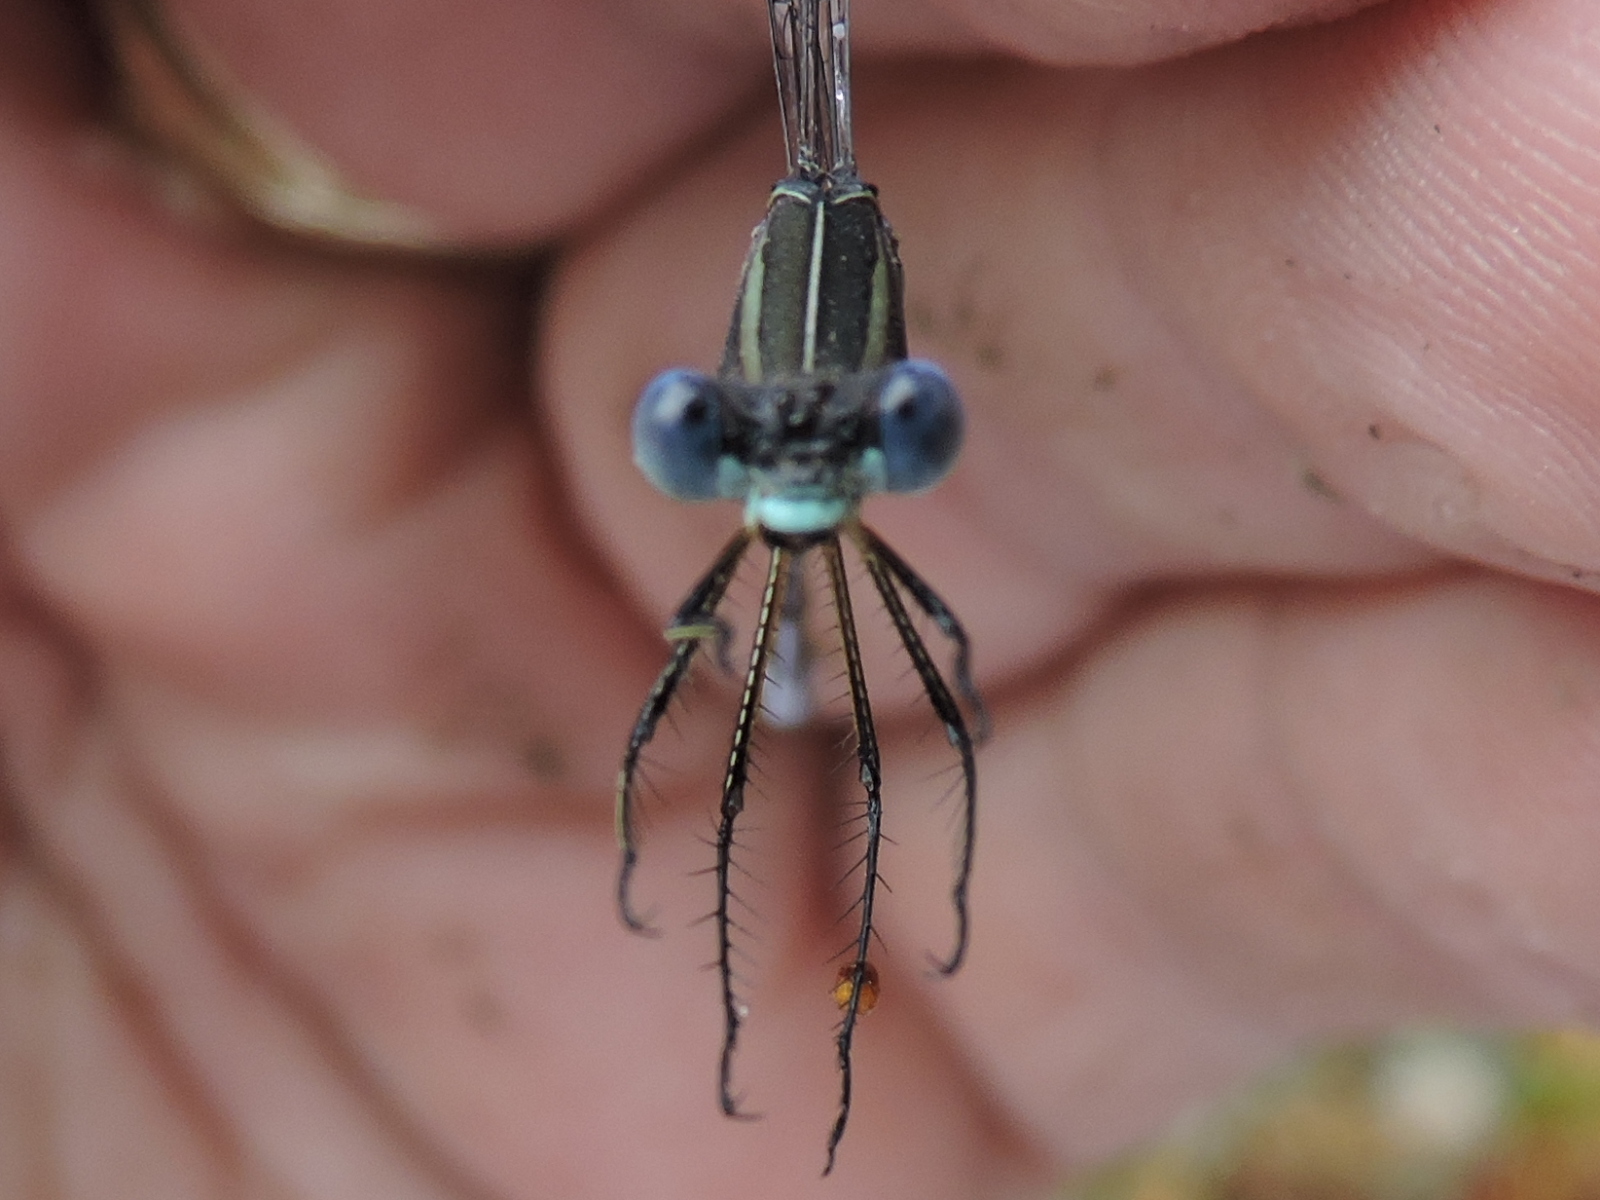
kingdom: Animalia
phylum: Arthropoda
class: Insecta
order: Odonata
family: Lestidae
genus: Lestes
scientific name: Lestes australis
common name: Southern spreadwing
